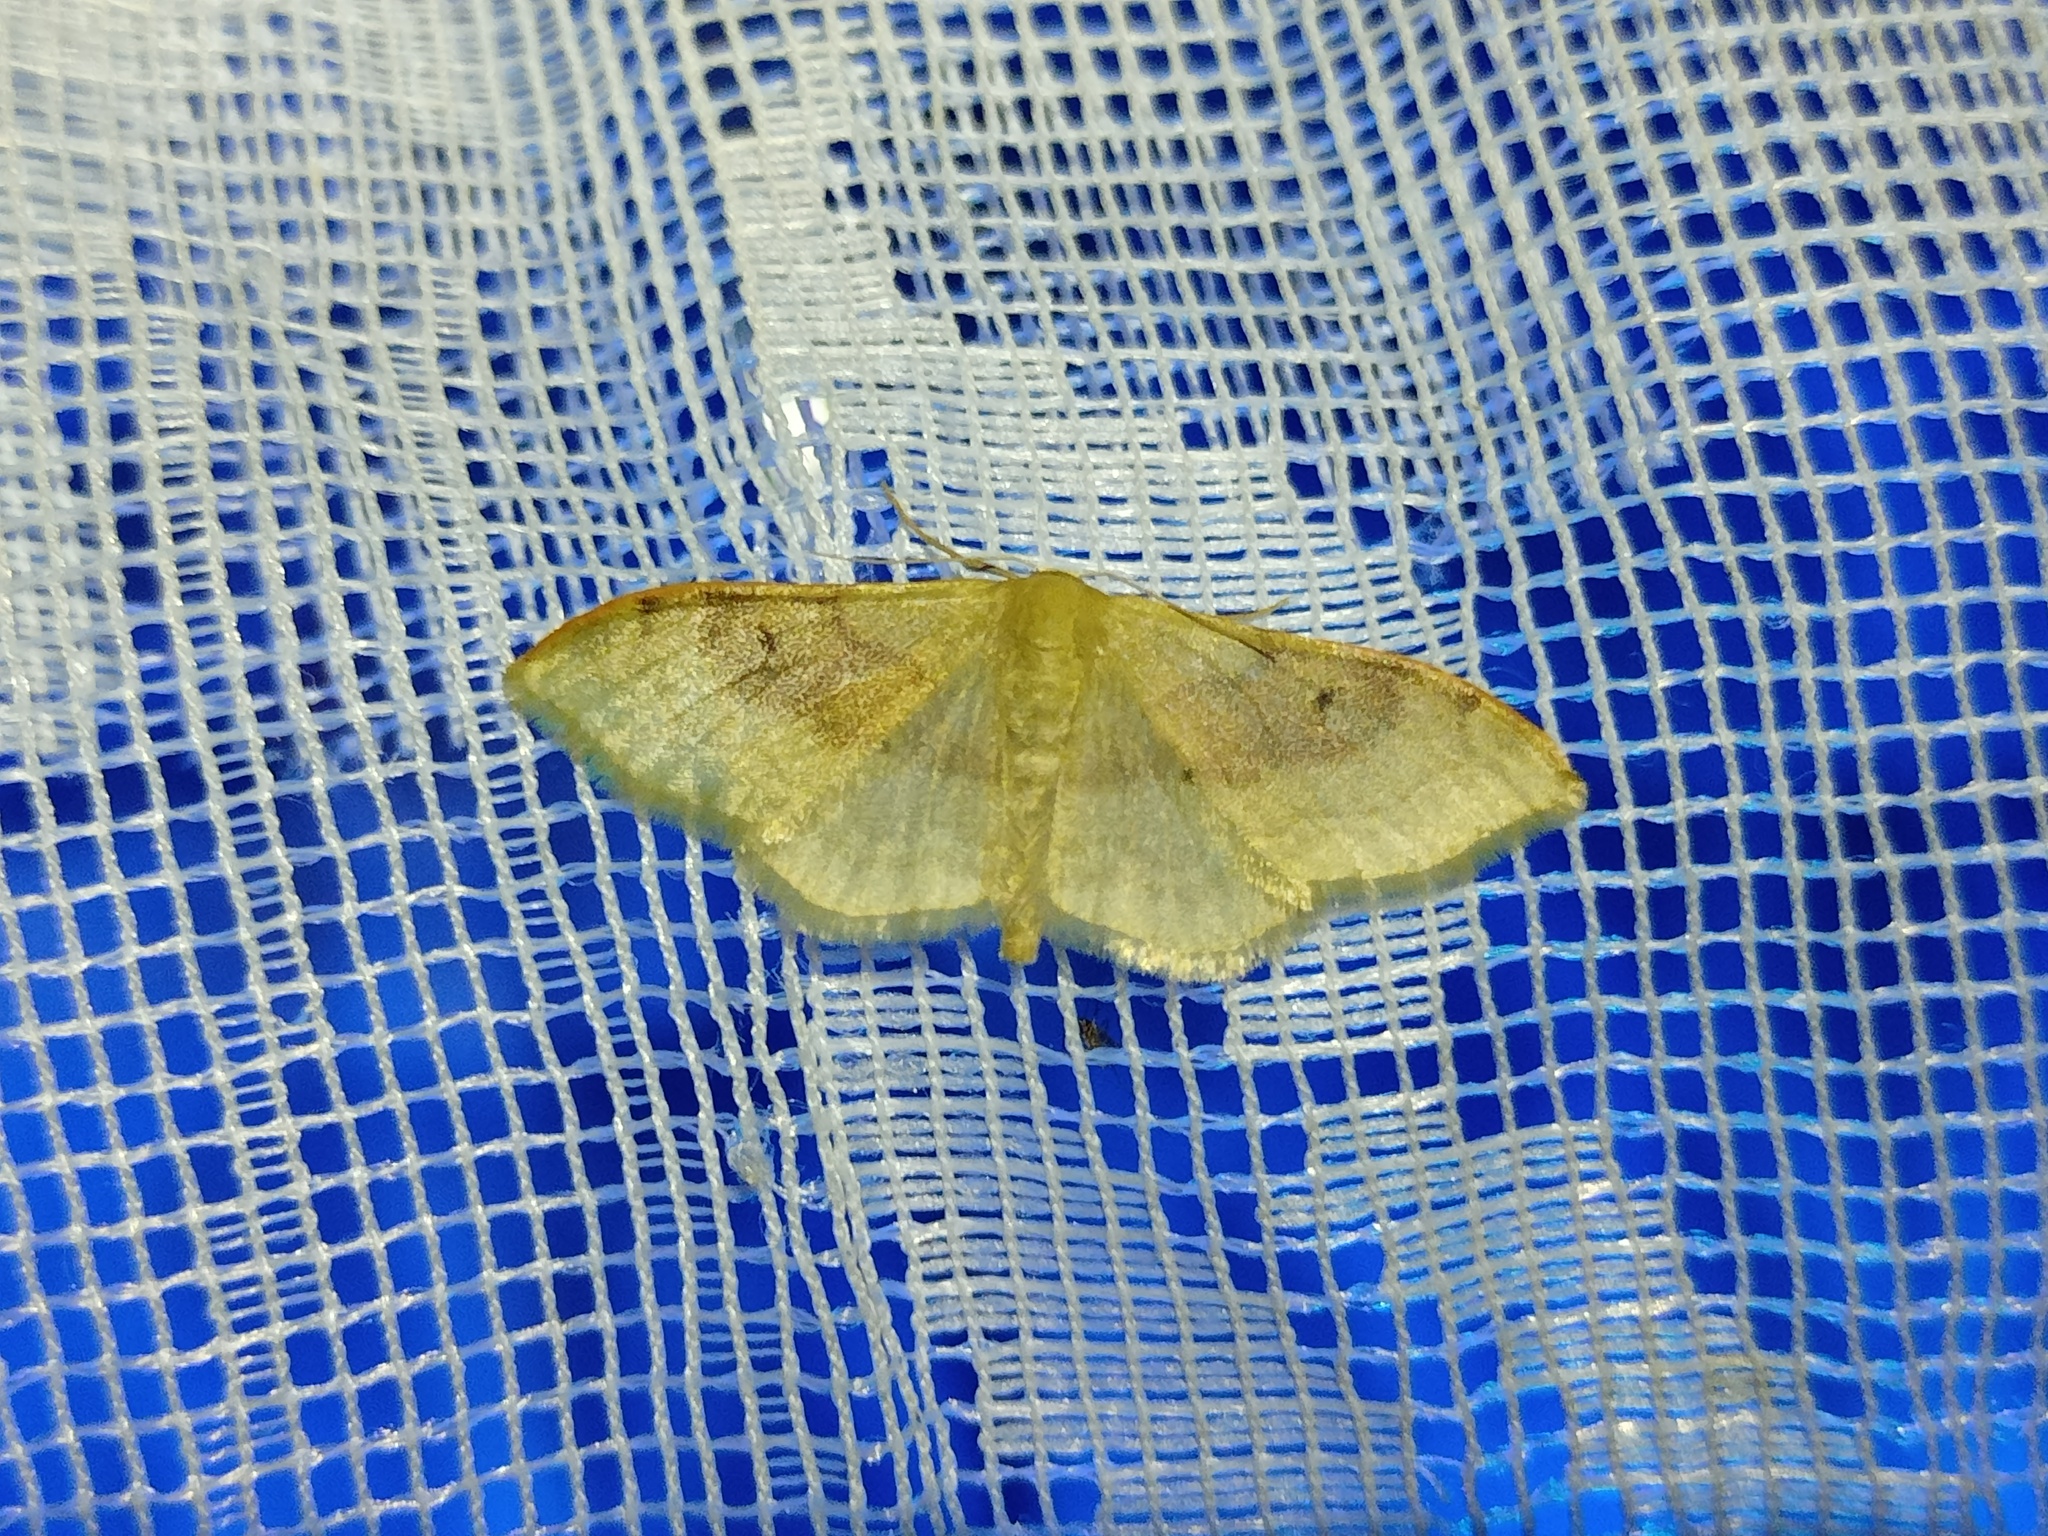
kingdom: Animalia
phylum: Arthropoda
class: Insecta
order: Lepidoptera
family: Geometridae
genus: Idaea
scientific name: Idaea degeneraria
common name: Portland ribbon wave
